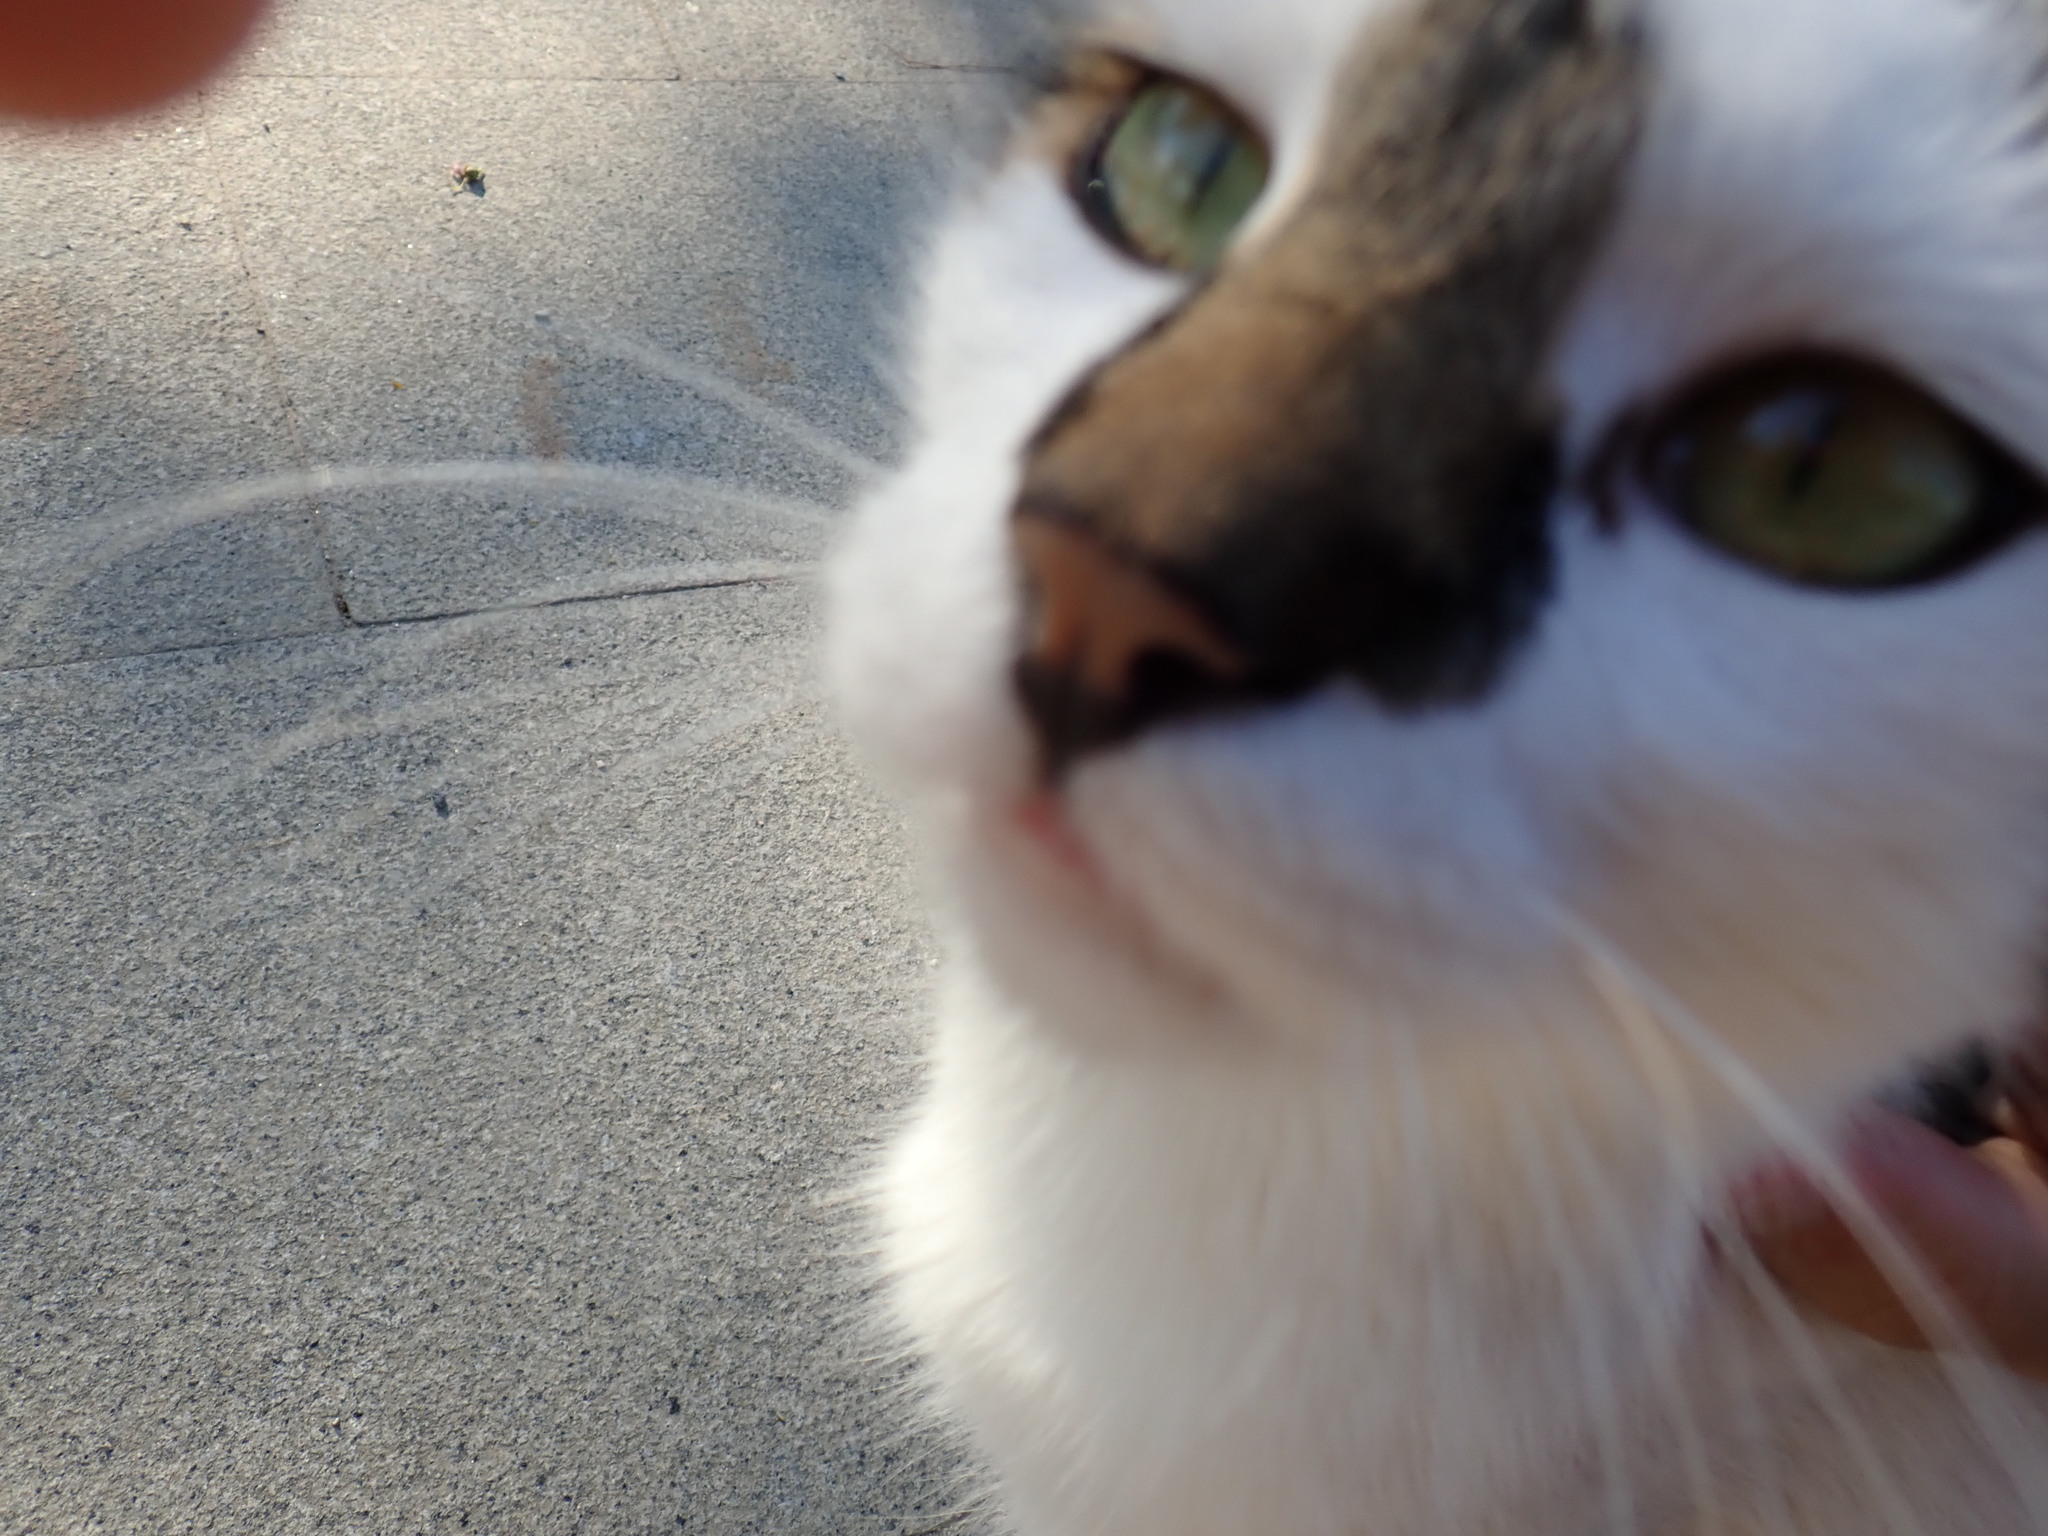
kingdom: Animalia
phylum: Chordata
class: Mammalia
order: Carnivora
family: Felidae
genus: Felis
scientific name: Felis catus
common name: Domestic cat
